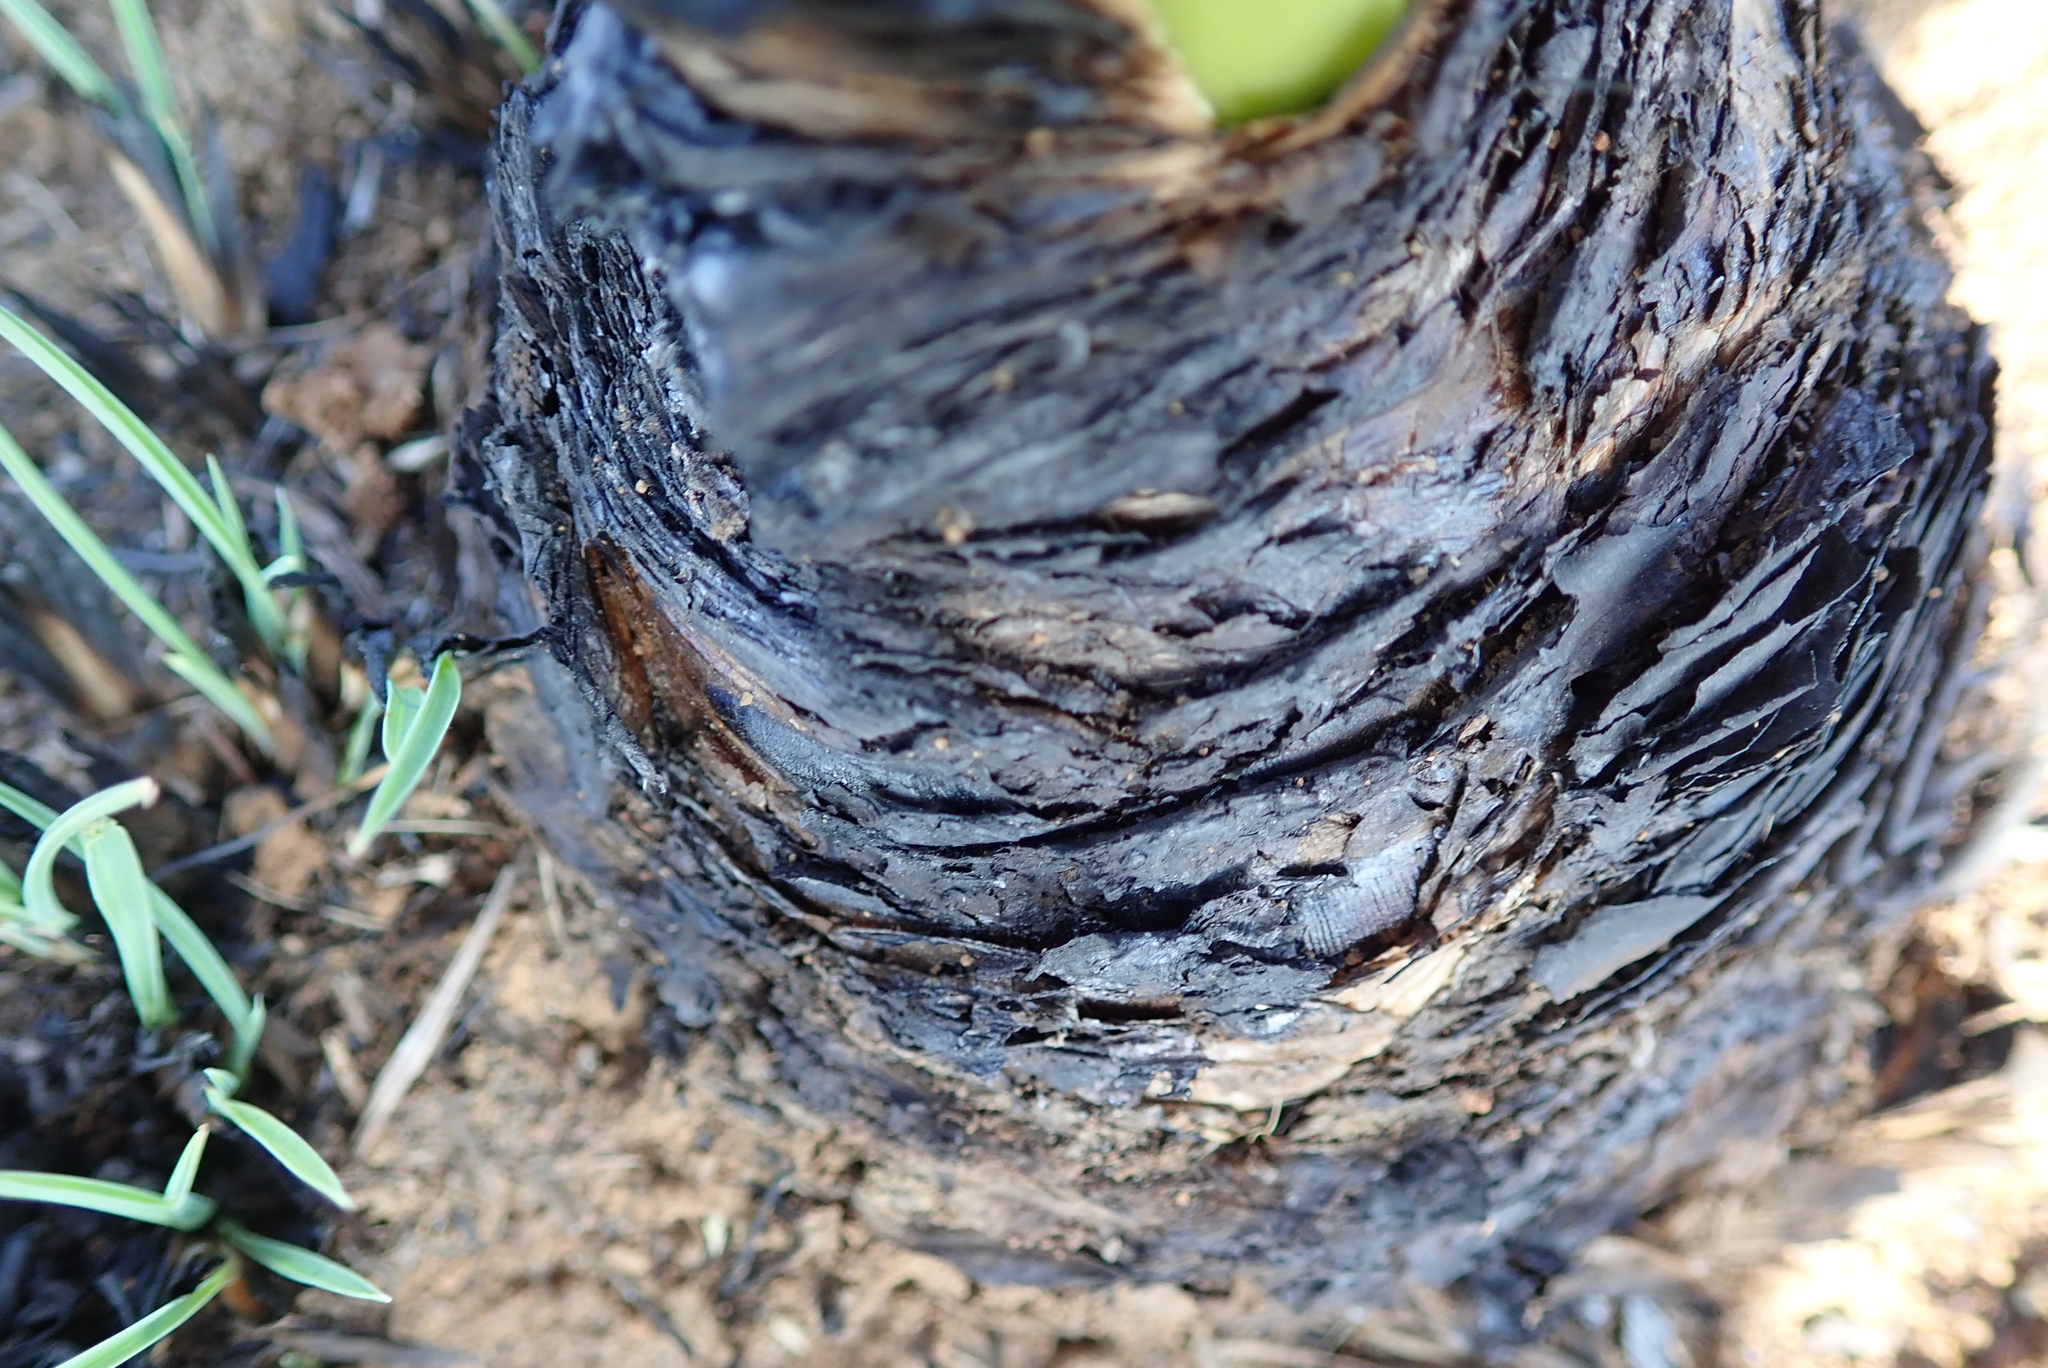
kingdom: Plantae
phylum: Tracheophyta
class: Liliopsida
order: Asparagales
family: Amaryllidaceae
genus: Boophone
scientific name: Boophone disticha
